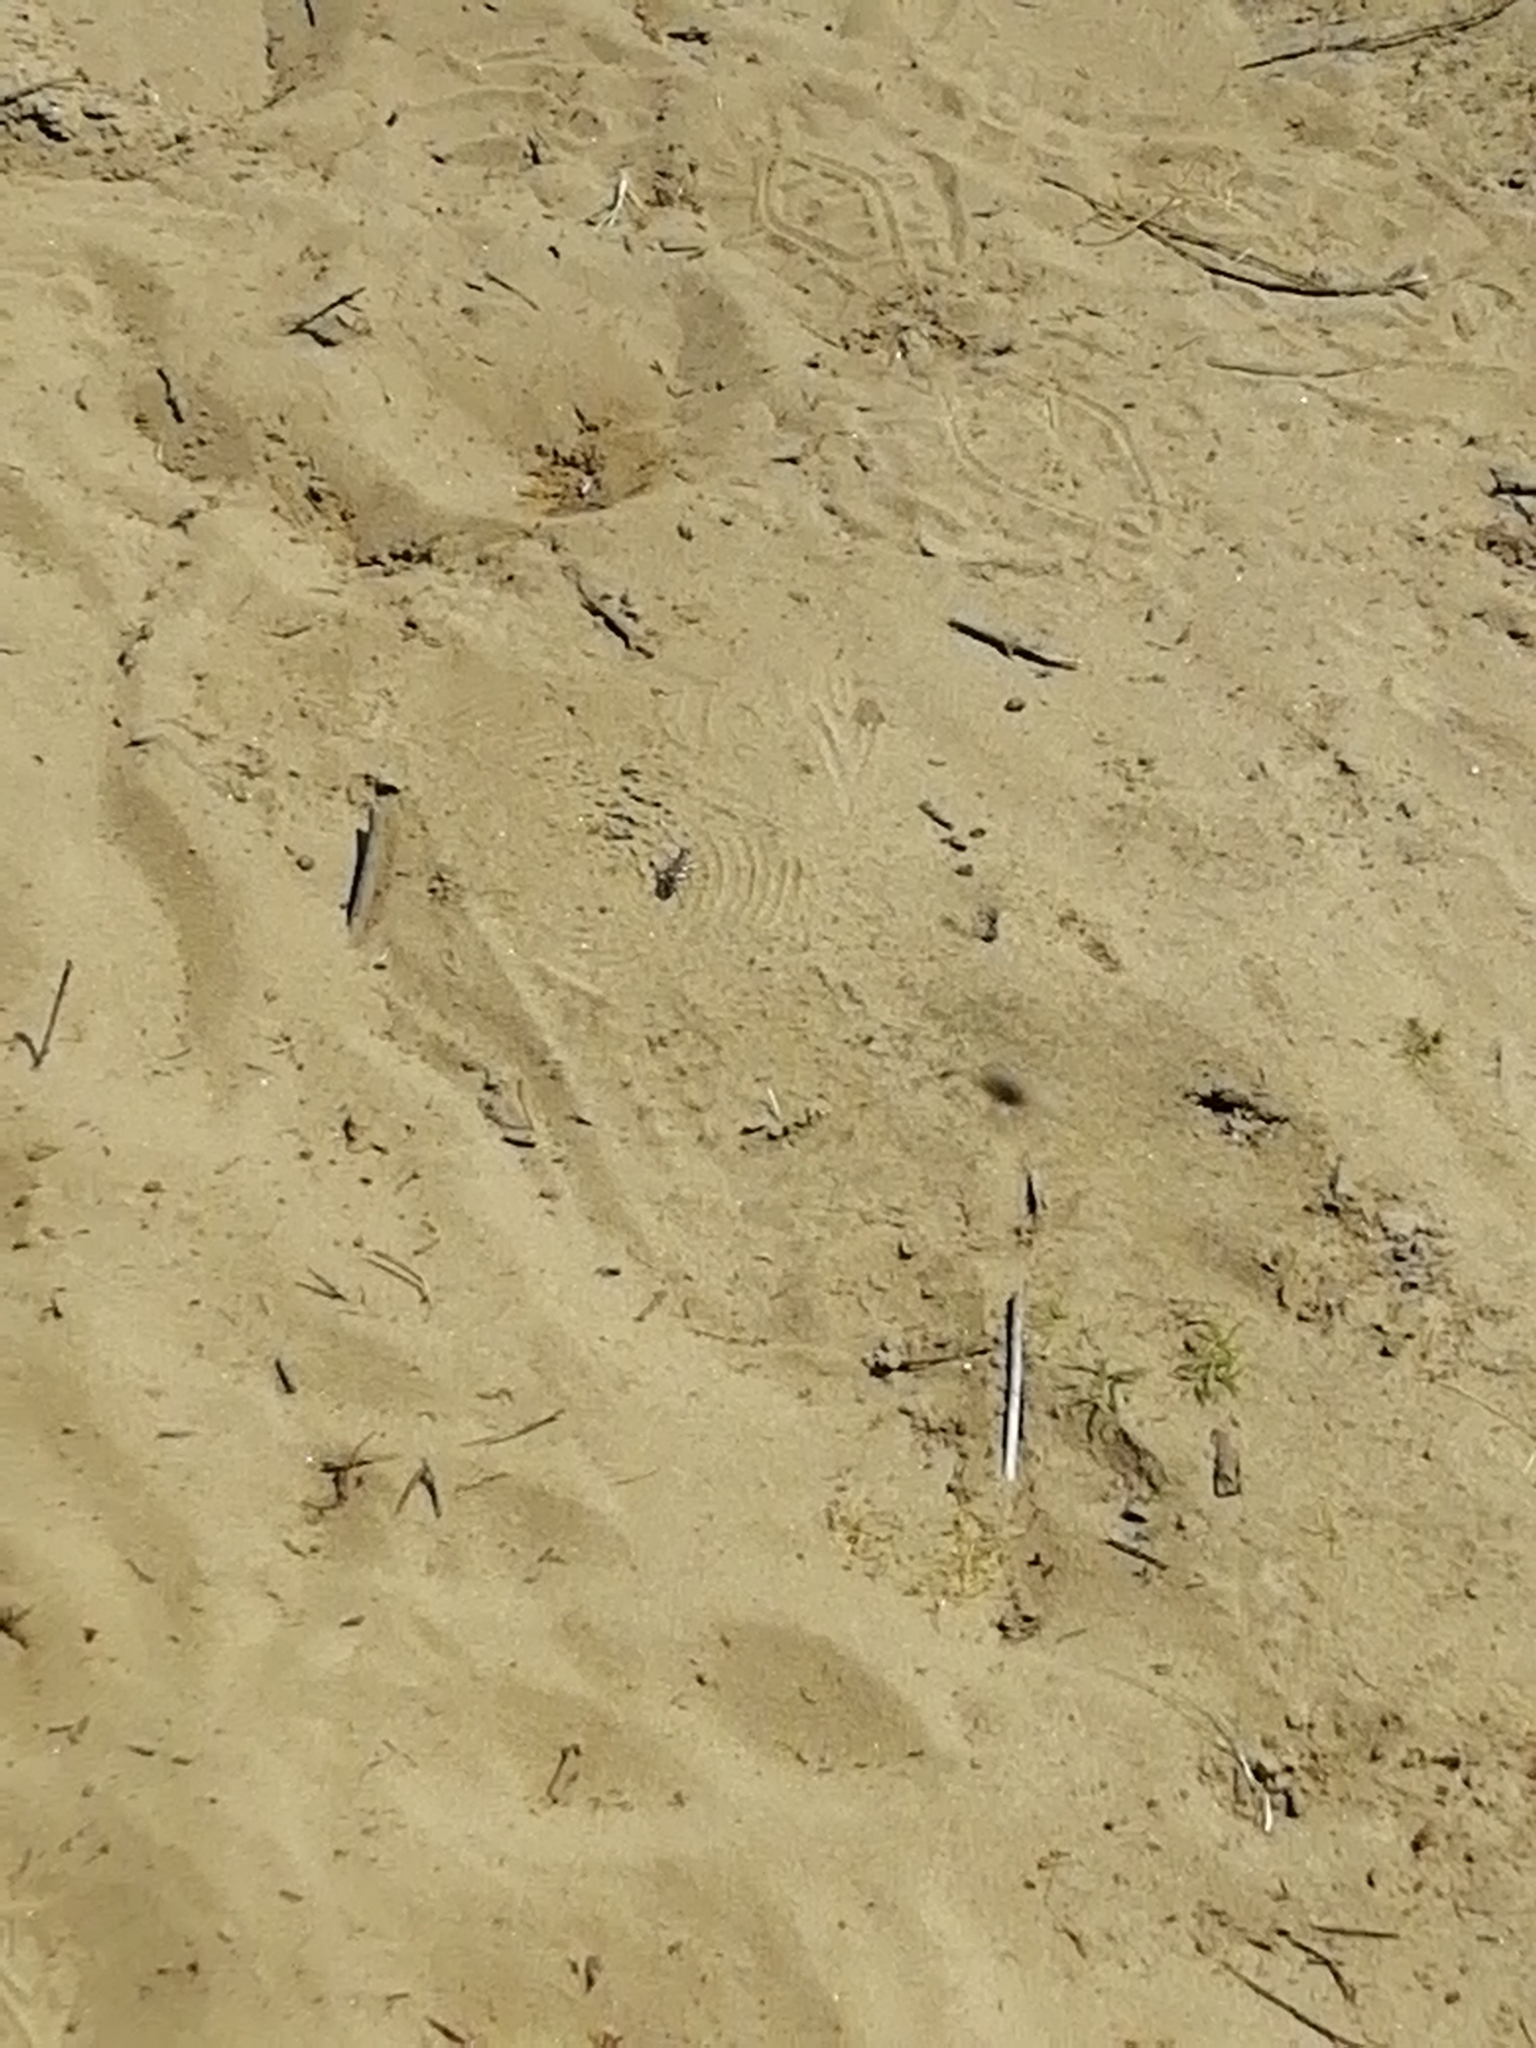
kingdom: Animalia
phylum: Arthropoda
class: Insecta
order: Coleoptera
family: Carabidae
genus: Cicindela
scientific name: Cicindela hybrida
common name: Northern dune tiger beetle
